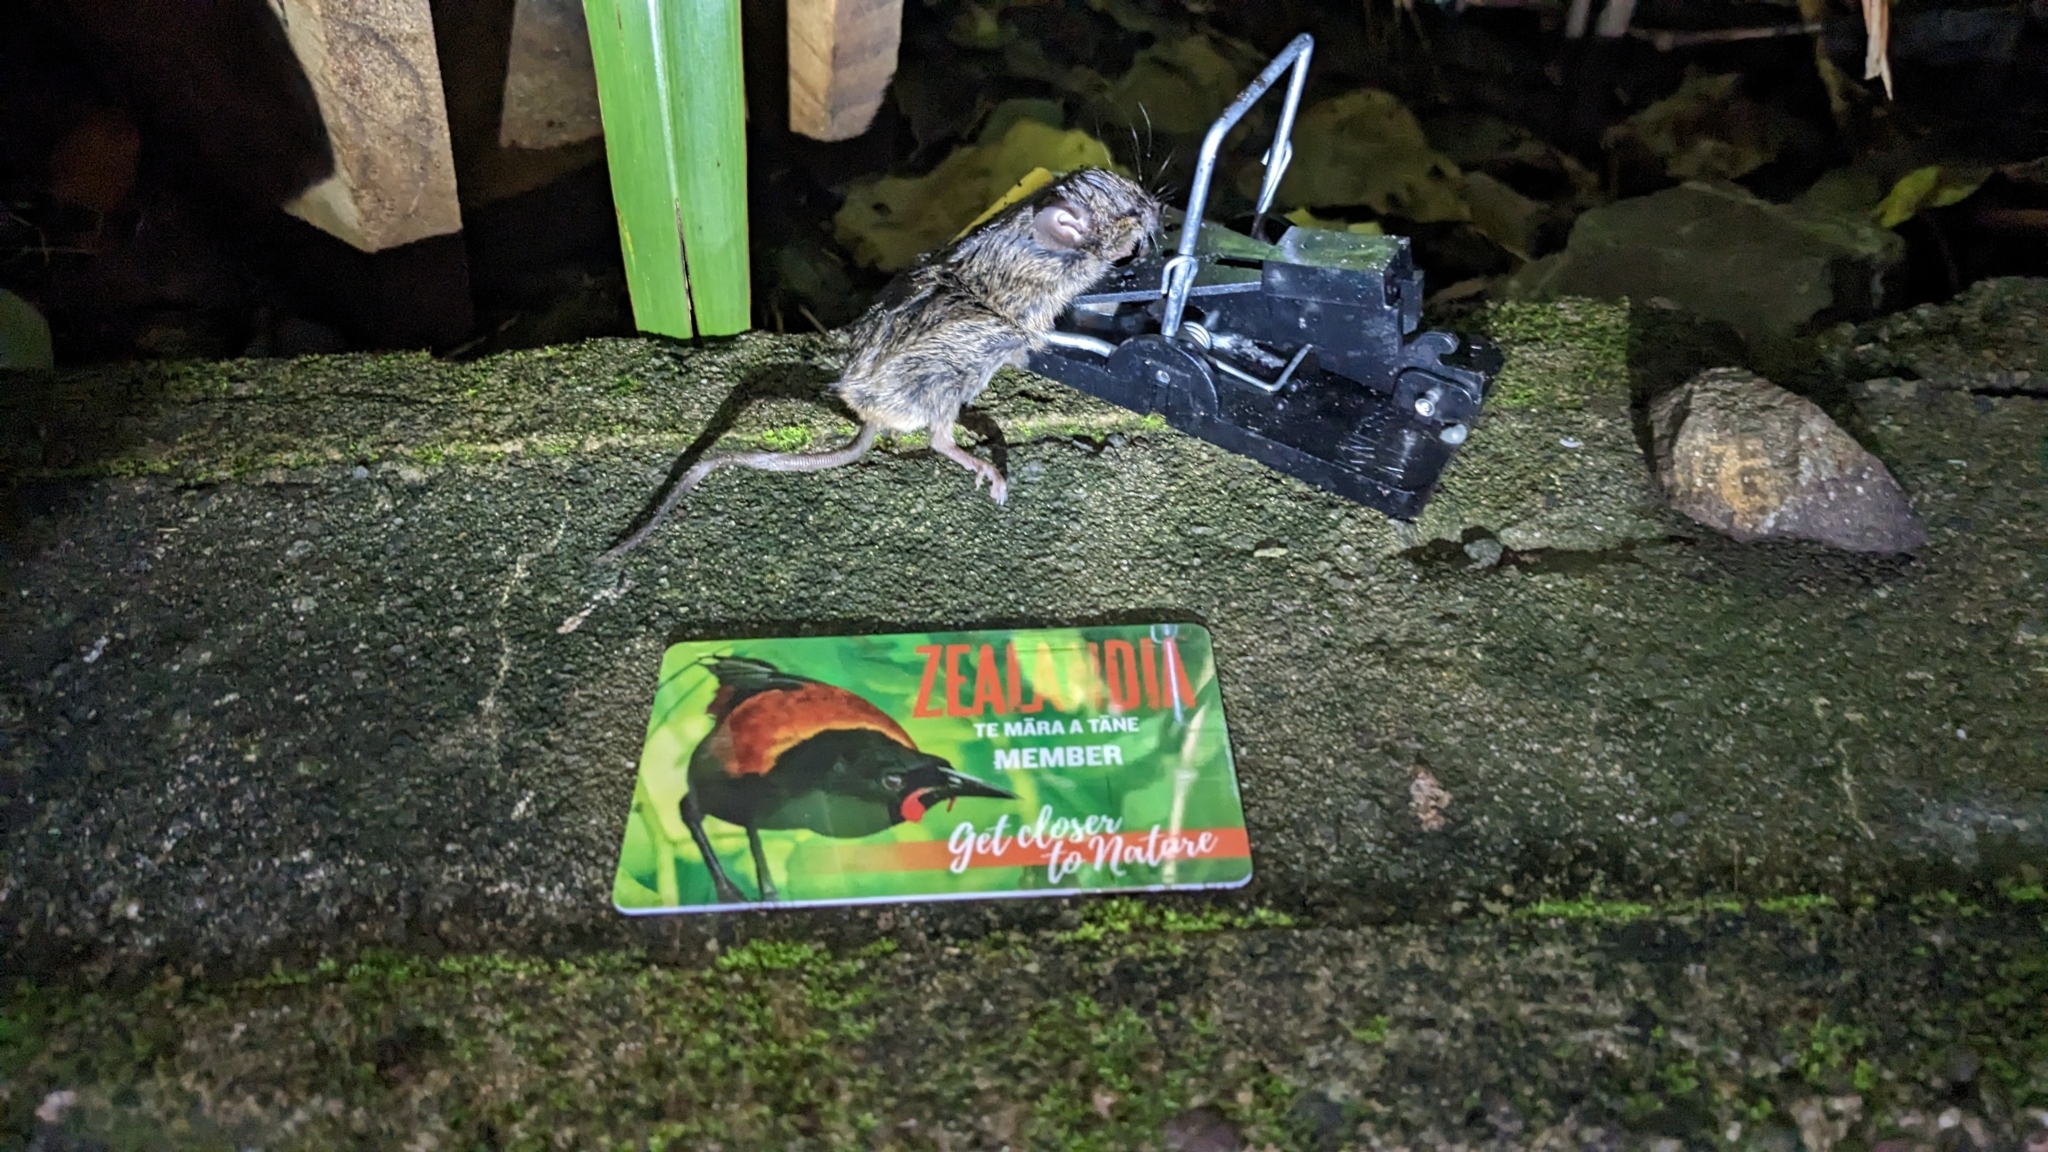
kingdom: Animalia
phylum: Chordata
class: Mammalia
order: Rodentia
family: Muridae
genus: Mus
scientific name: Mus musculus
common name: House mouse
